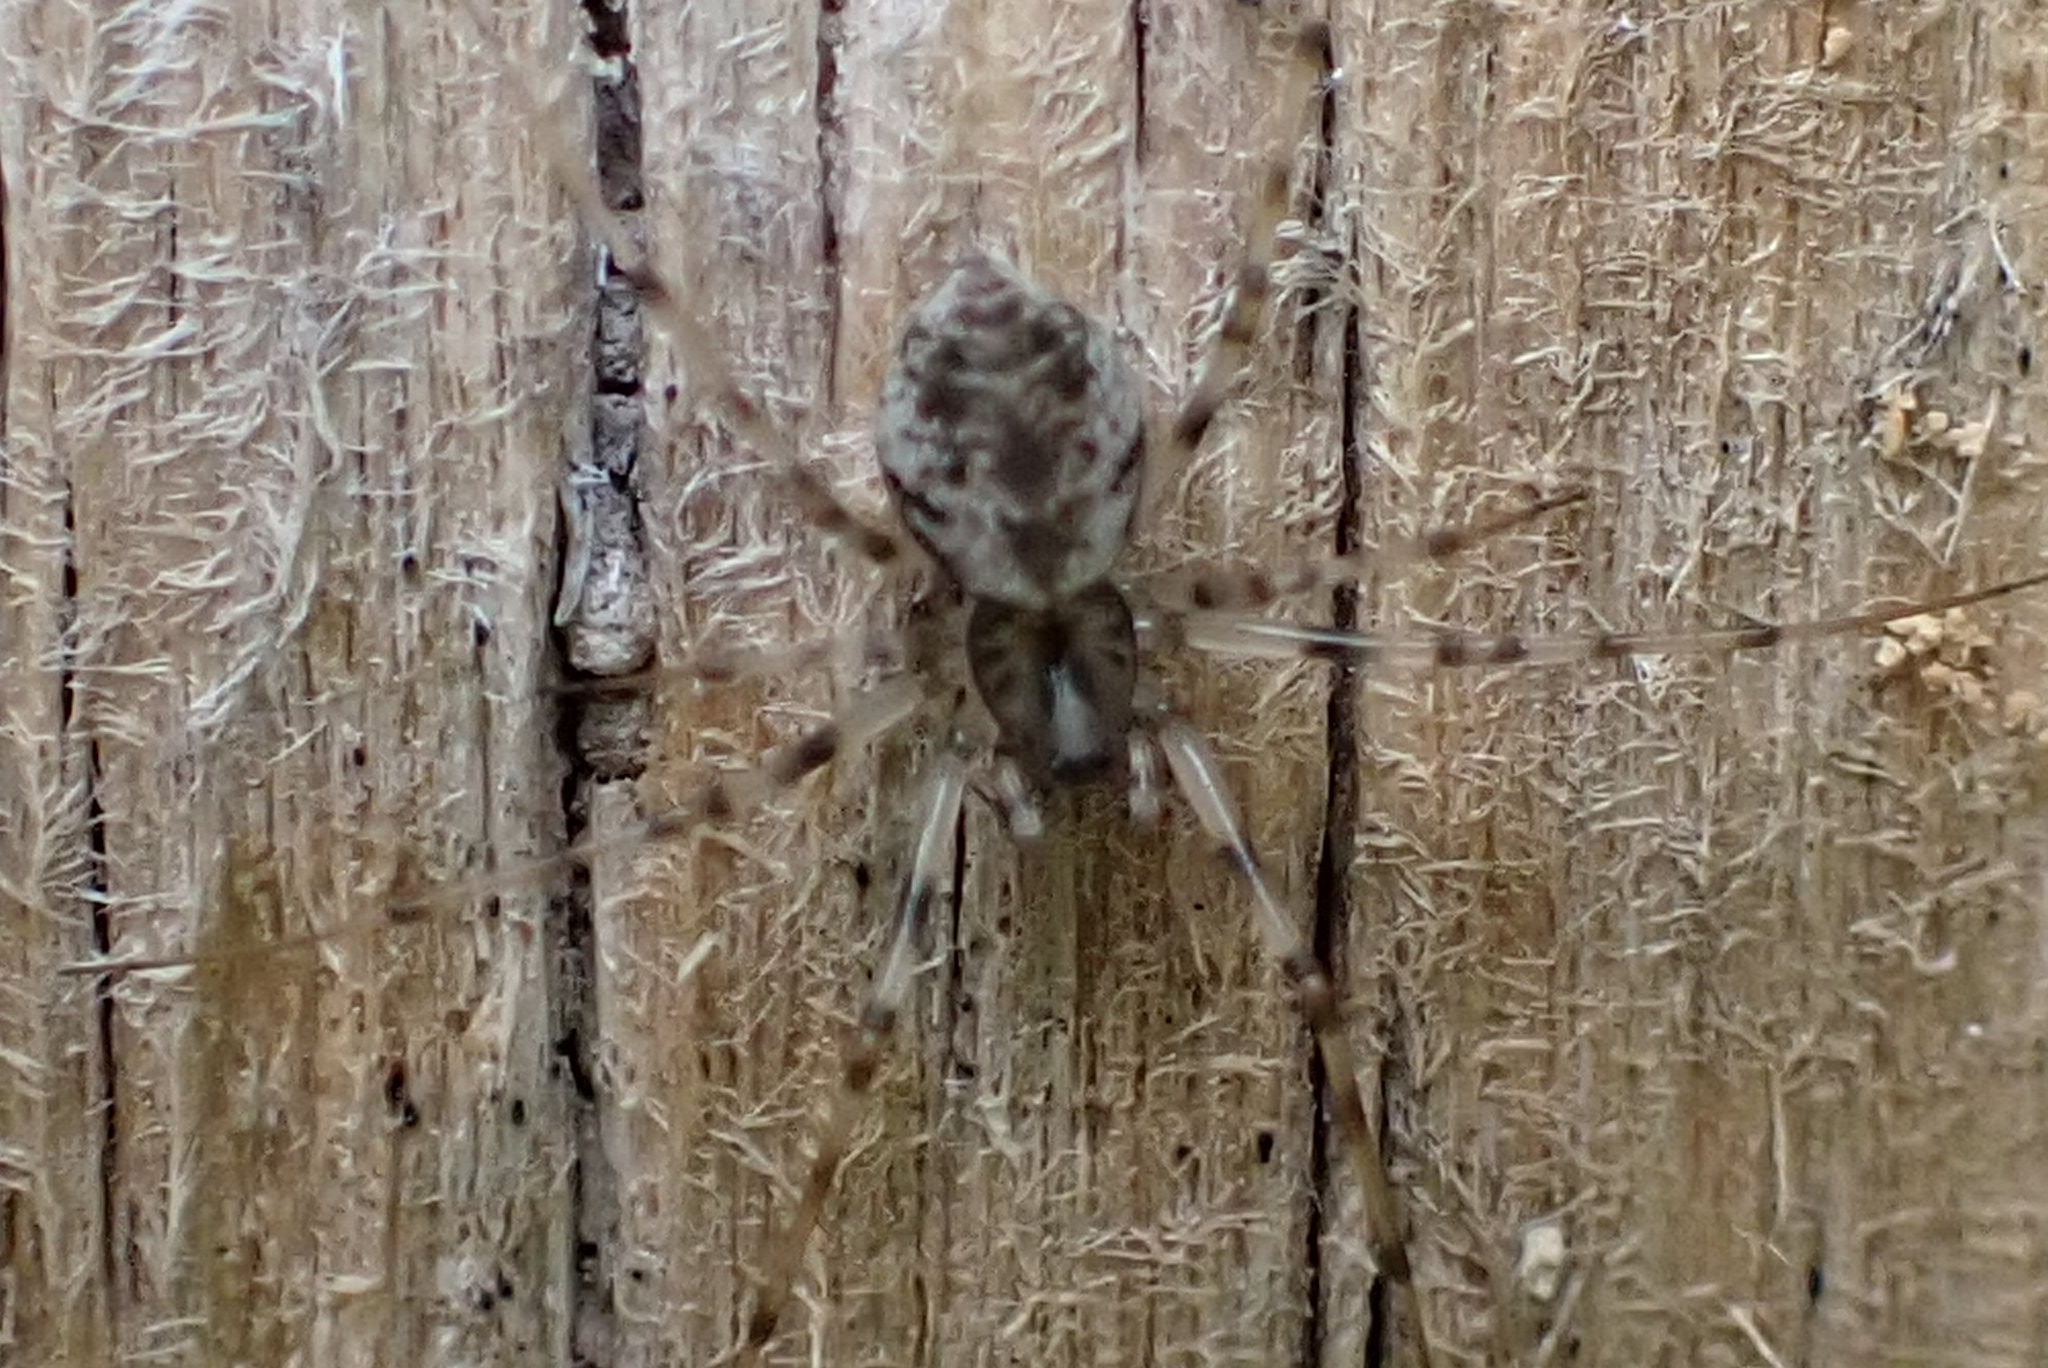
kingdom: Animalia
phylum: Arthropoda
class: Arachnida
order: Araneae
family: Linyphiidae
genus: Drapetisca
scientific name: Drapetisca socialis
